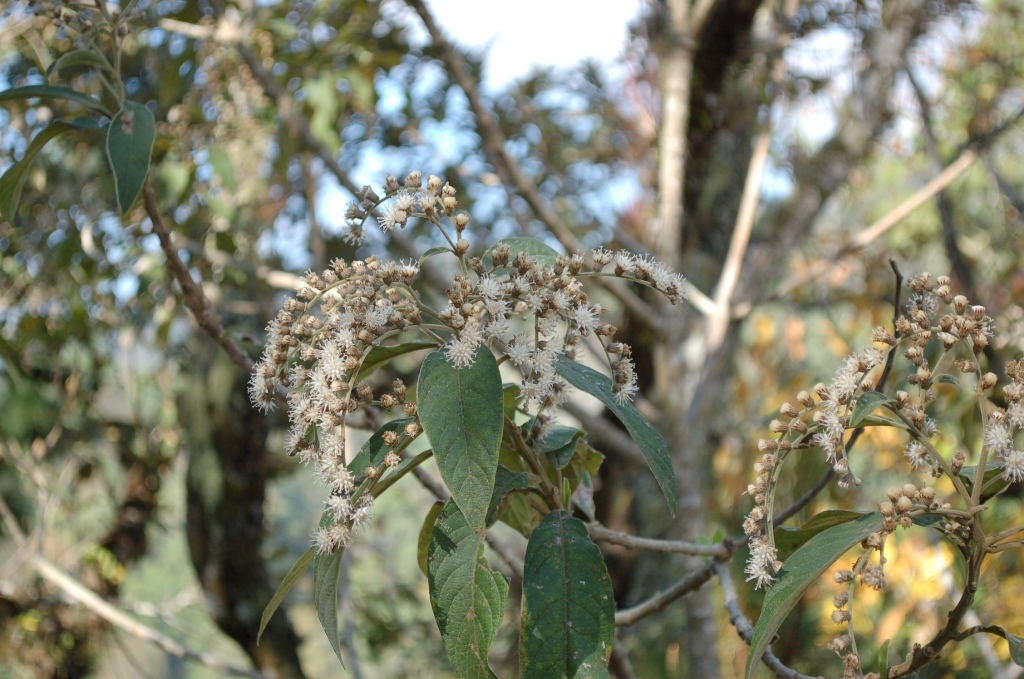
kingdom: Plantae
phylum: Tracheophyta
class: Magnoliopsida
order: Asterales
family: Asteraceae
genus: Lepidaploa
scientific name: Lepidaploa polypleura
